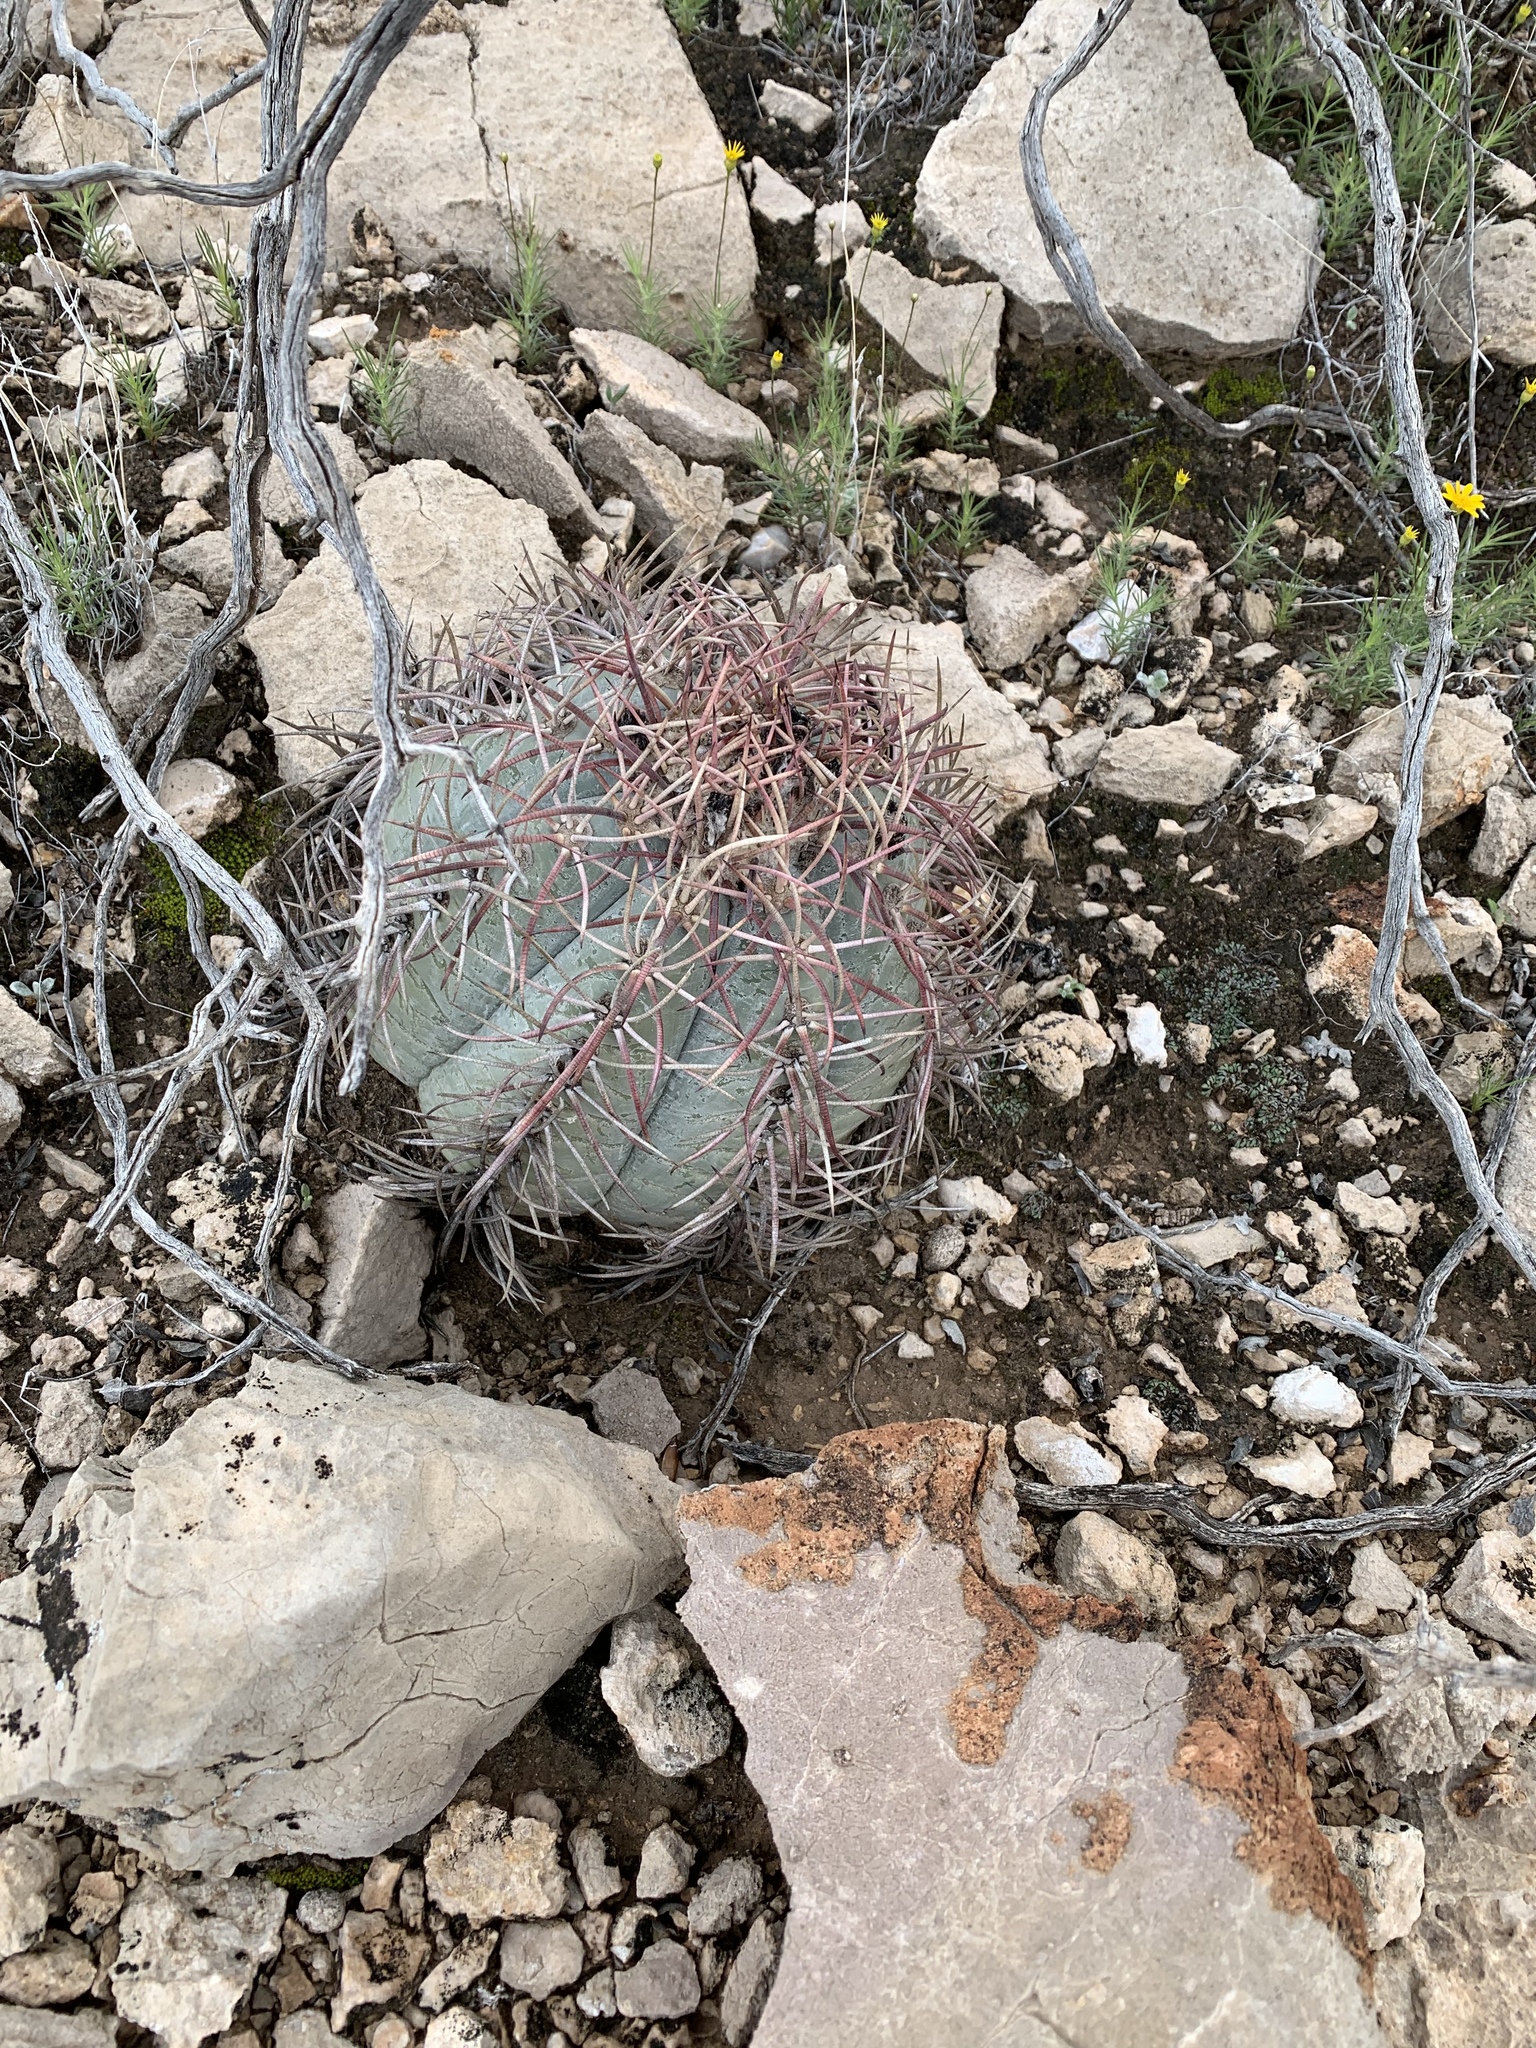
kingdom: Plantae
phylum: Tracheophyta
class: Magnoliopsida
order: Caryophyllales
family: Cactaceae
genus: Echinocactus
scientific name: Echinocactus horizonthalonius
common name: Devilshead
